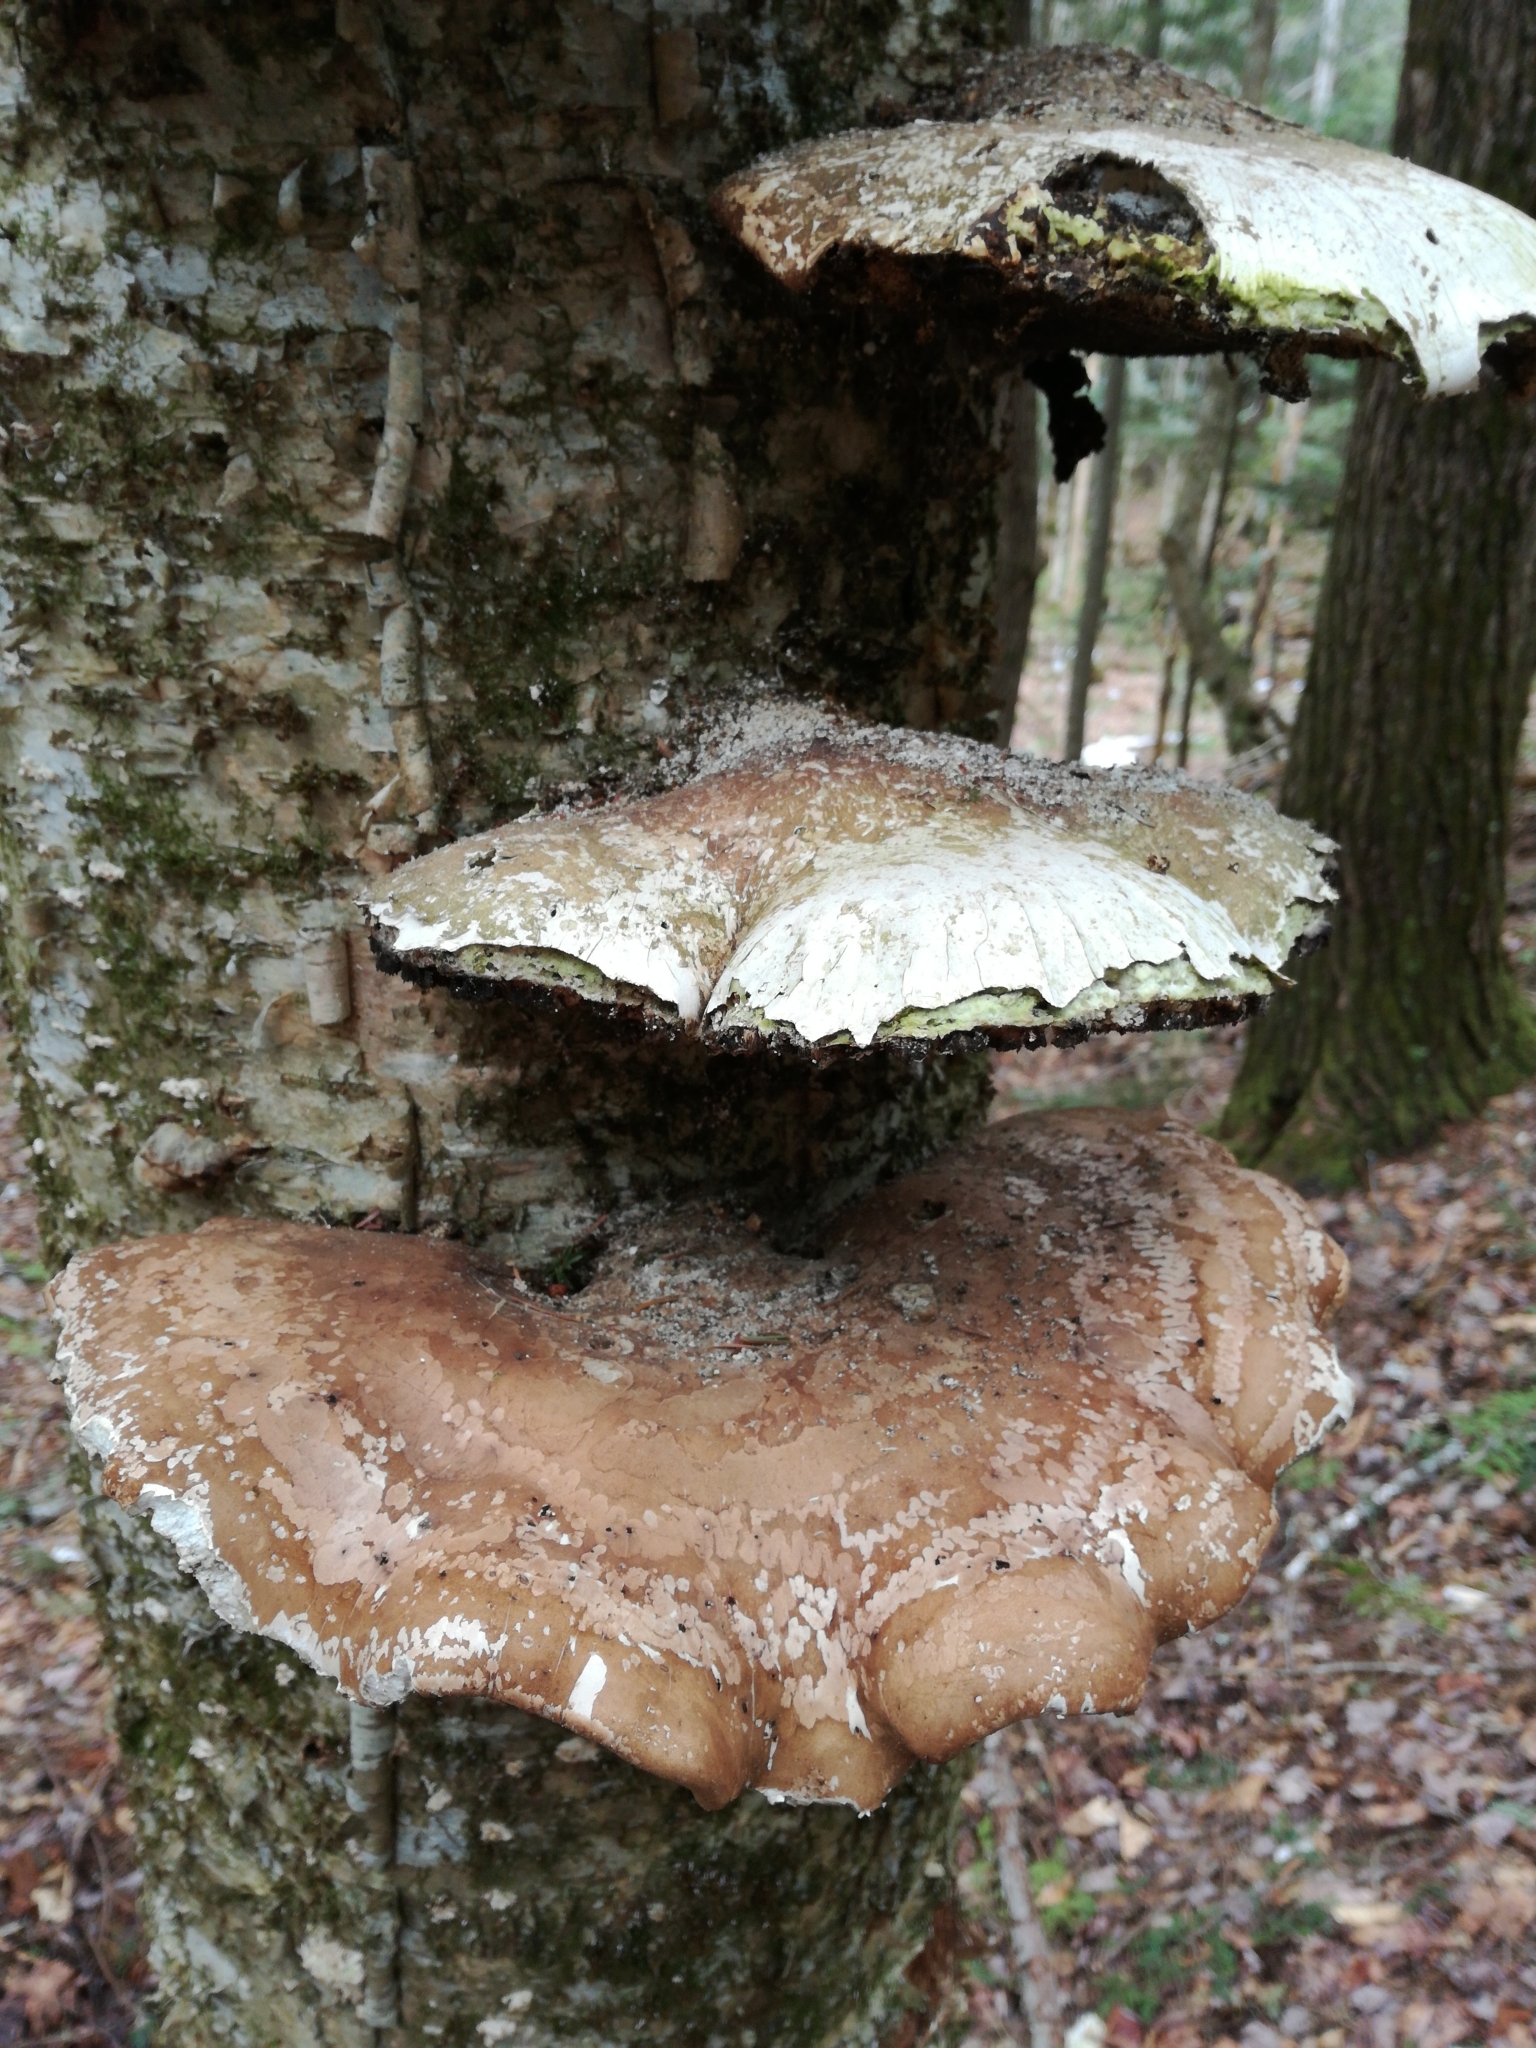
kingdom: Fungi
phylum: Basidiomycota
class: Agaricomycetes
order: Polyporales
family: Fomitopsidaceae
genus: Fomitopsis
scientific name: Fomitopsis betulina
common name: Birch polypore
